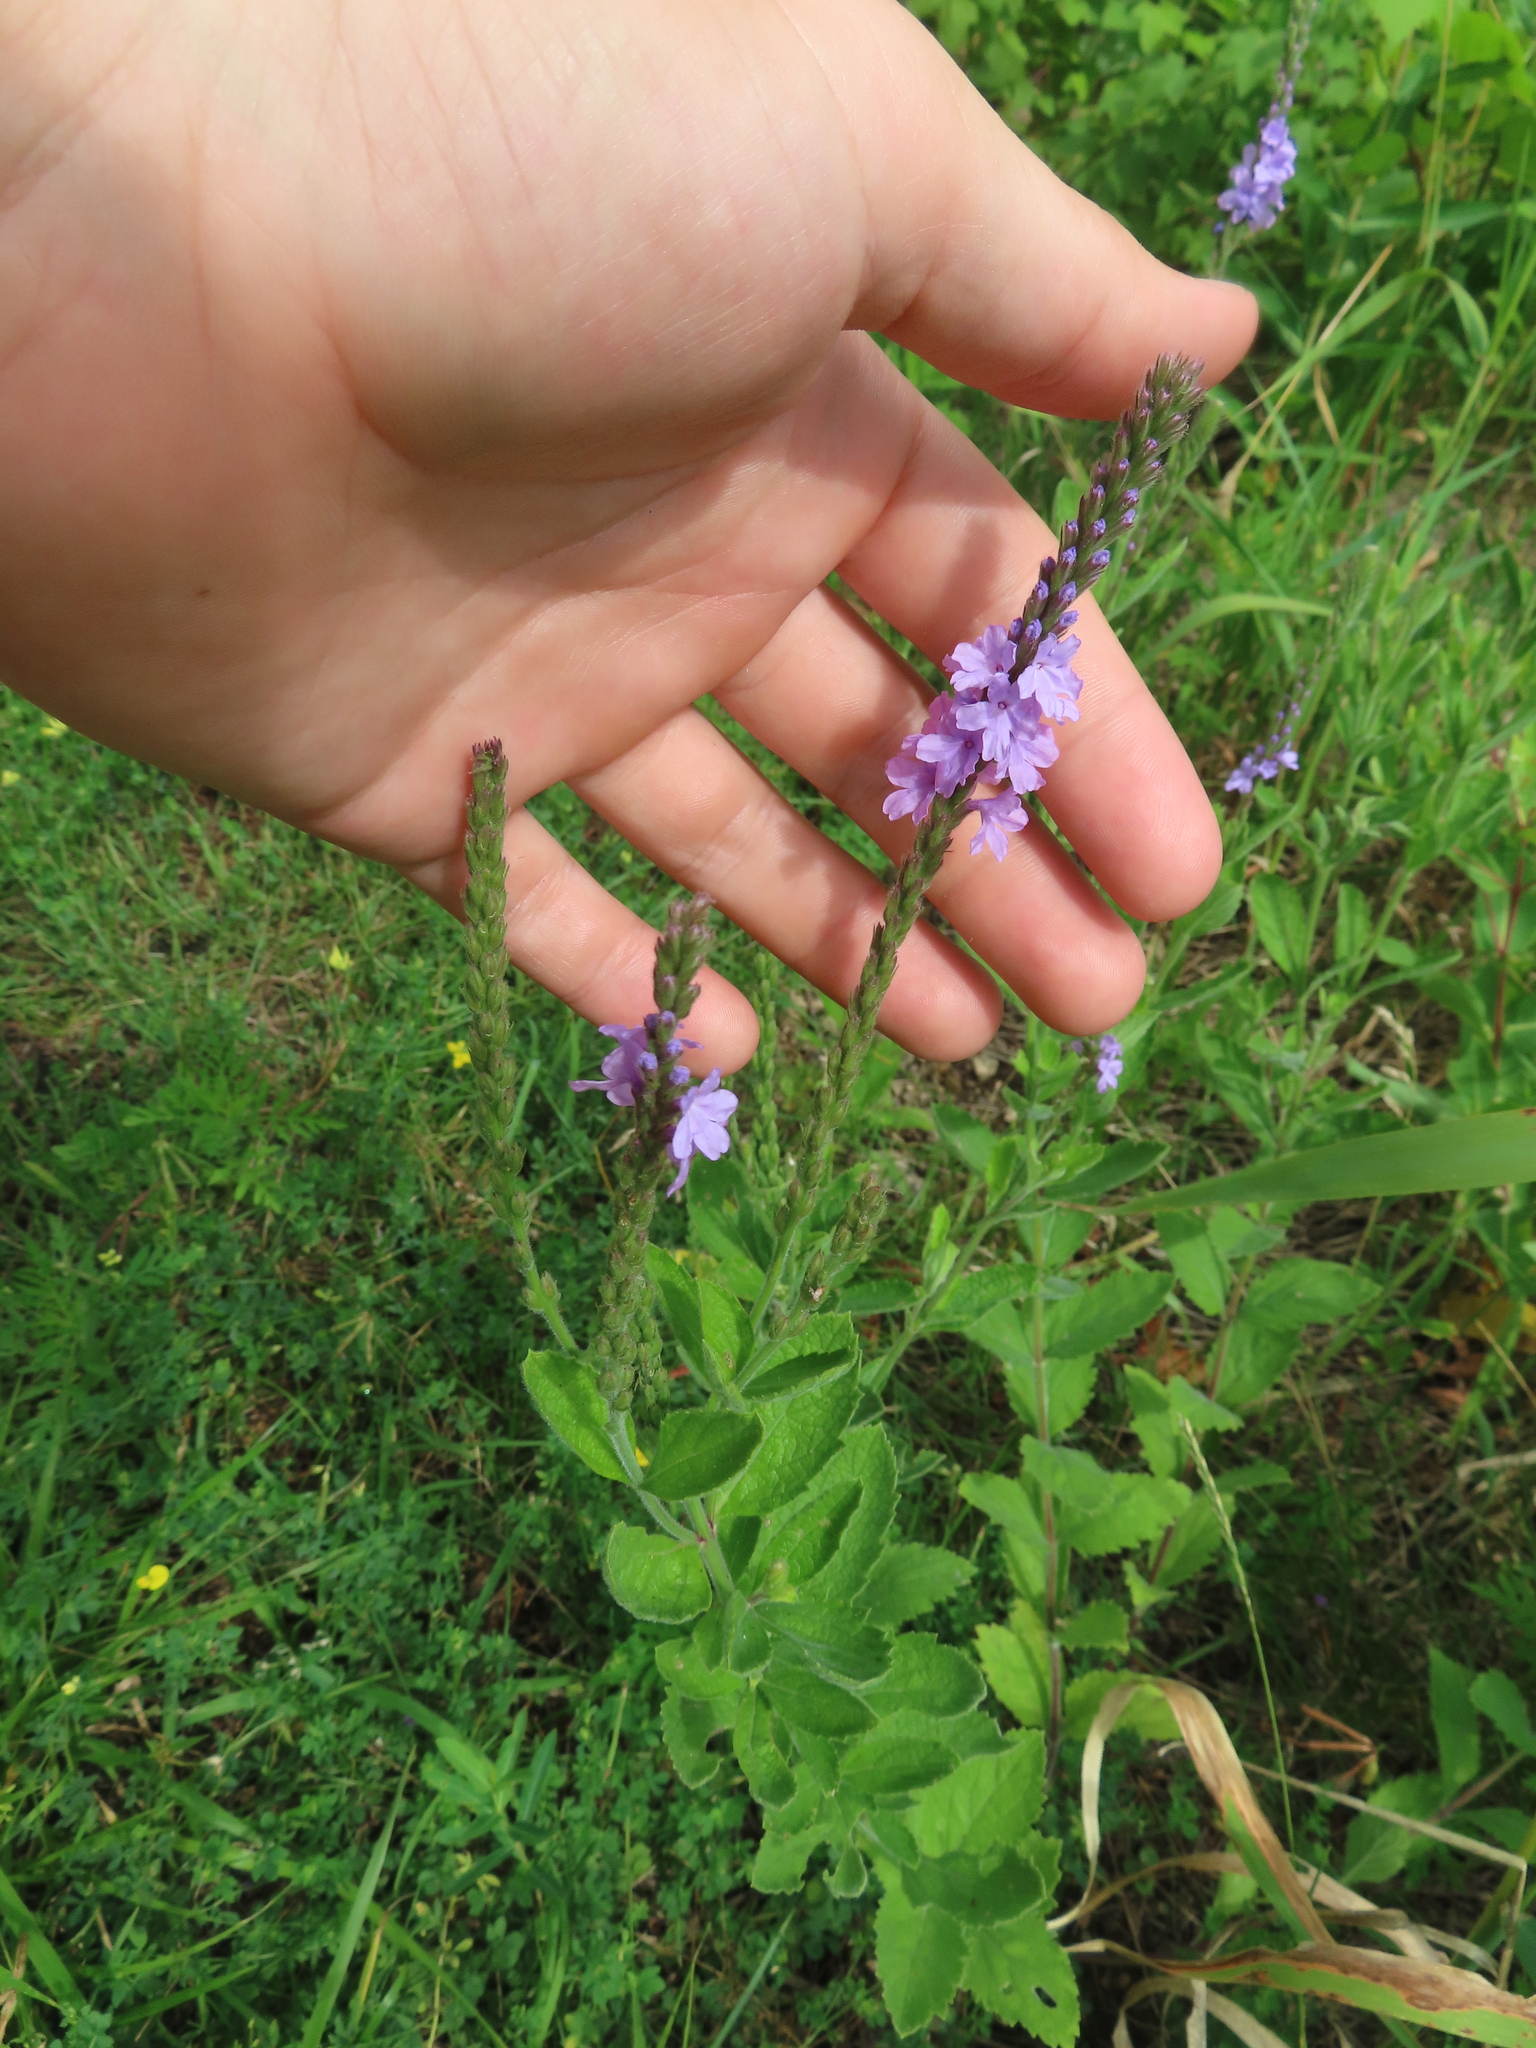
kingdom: Plantae
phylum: Tracheophyta
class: Magnoliopsida
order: Lamiales
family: Verbenaceae
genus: Verbena
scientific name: Verbena stricta
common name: Hoary vervain
